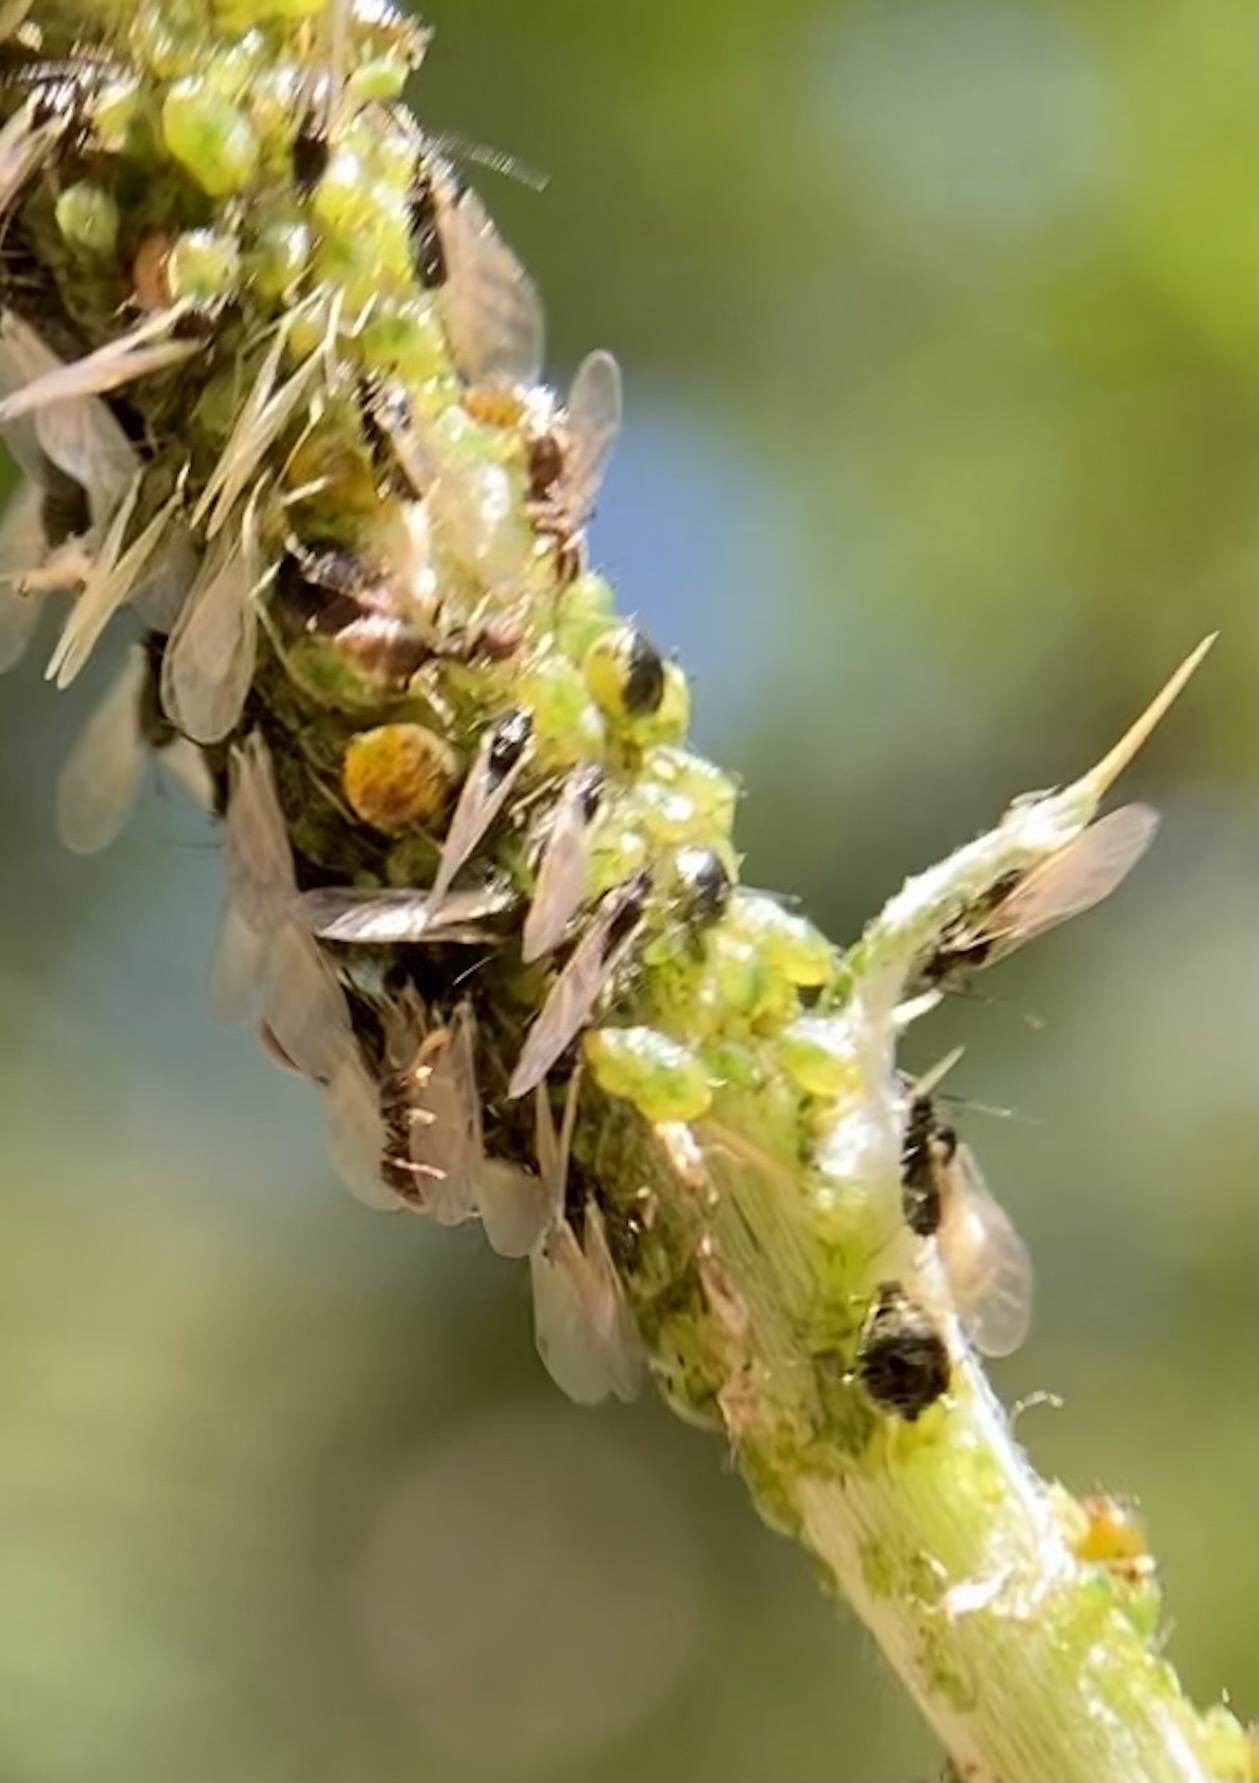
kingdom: Animalia
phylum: Arthropoda
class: Insecta
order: Hemiptera
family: Aphididae
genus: Brachycaudus
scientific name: Brachycaudus cardui
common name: Thistle aphid
